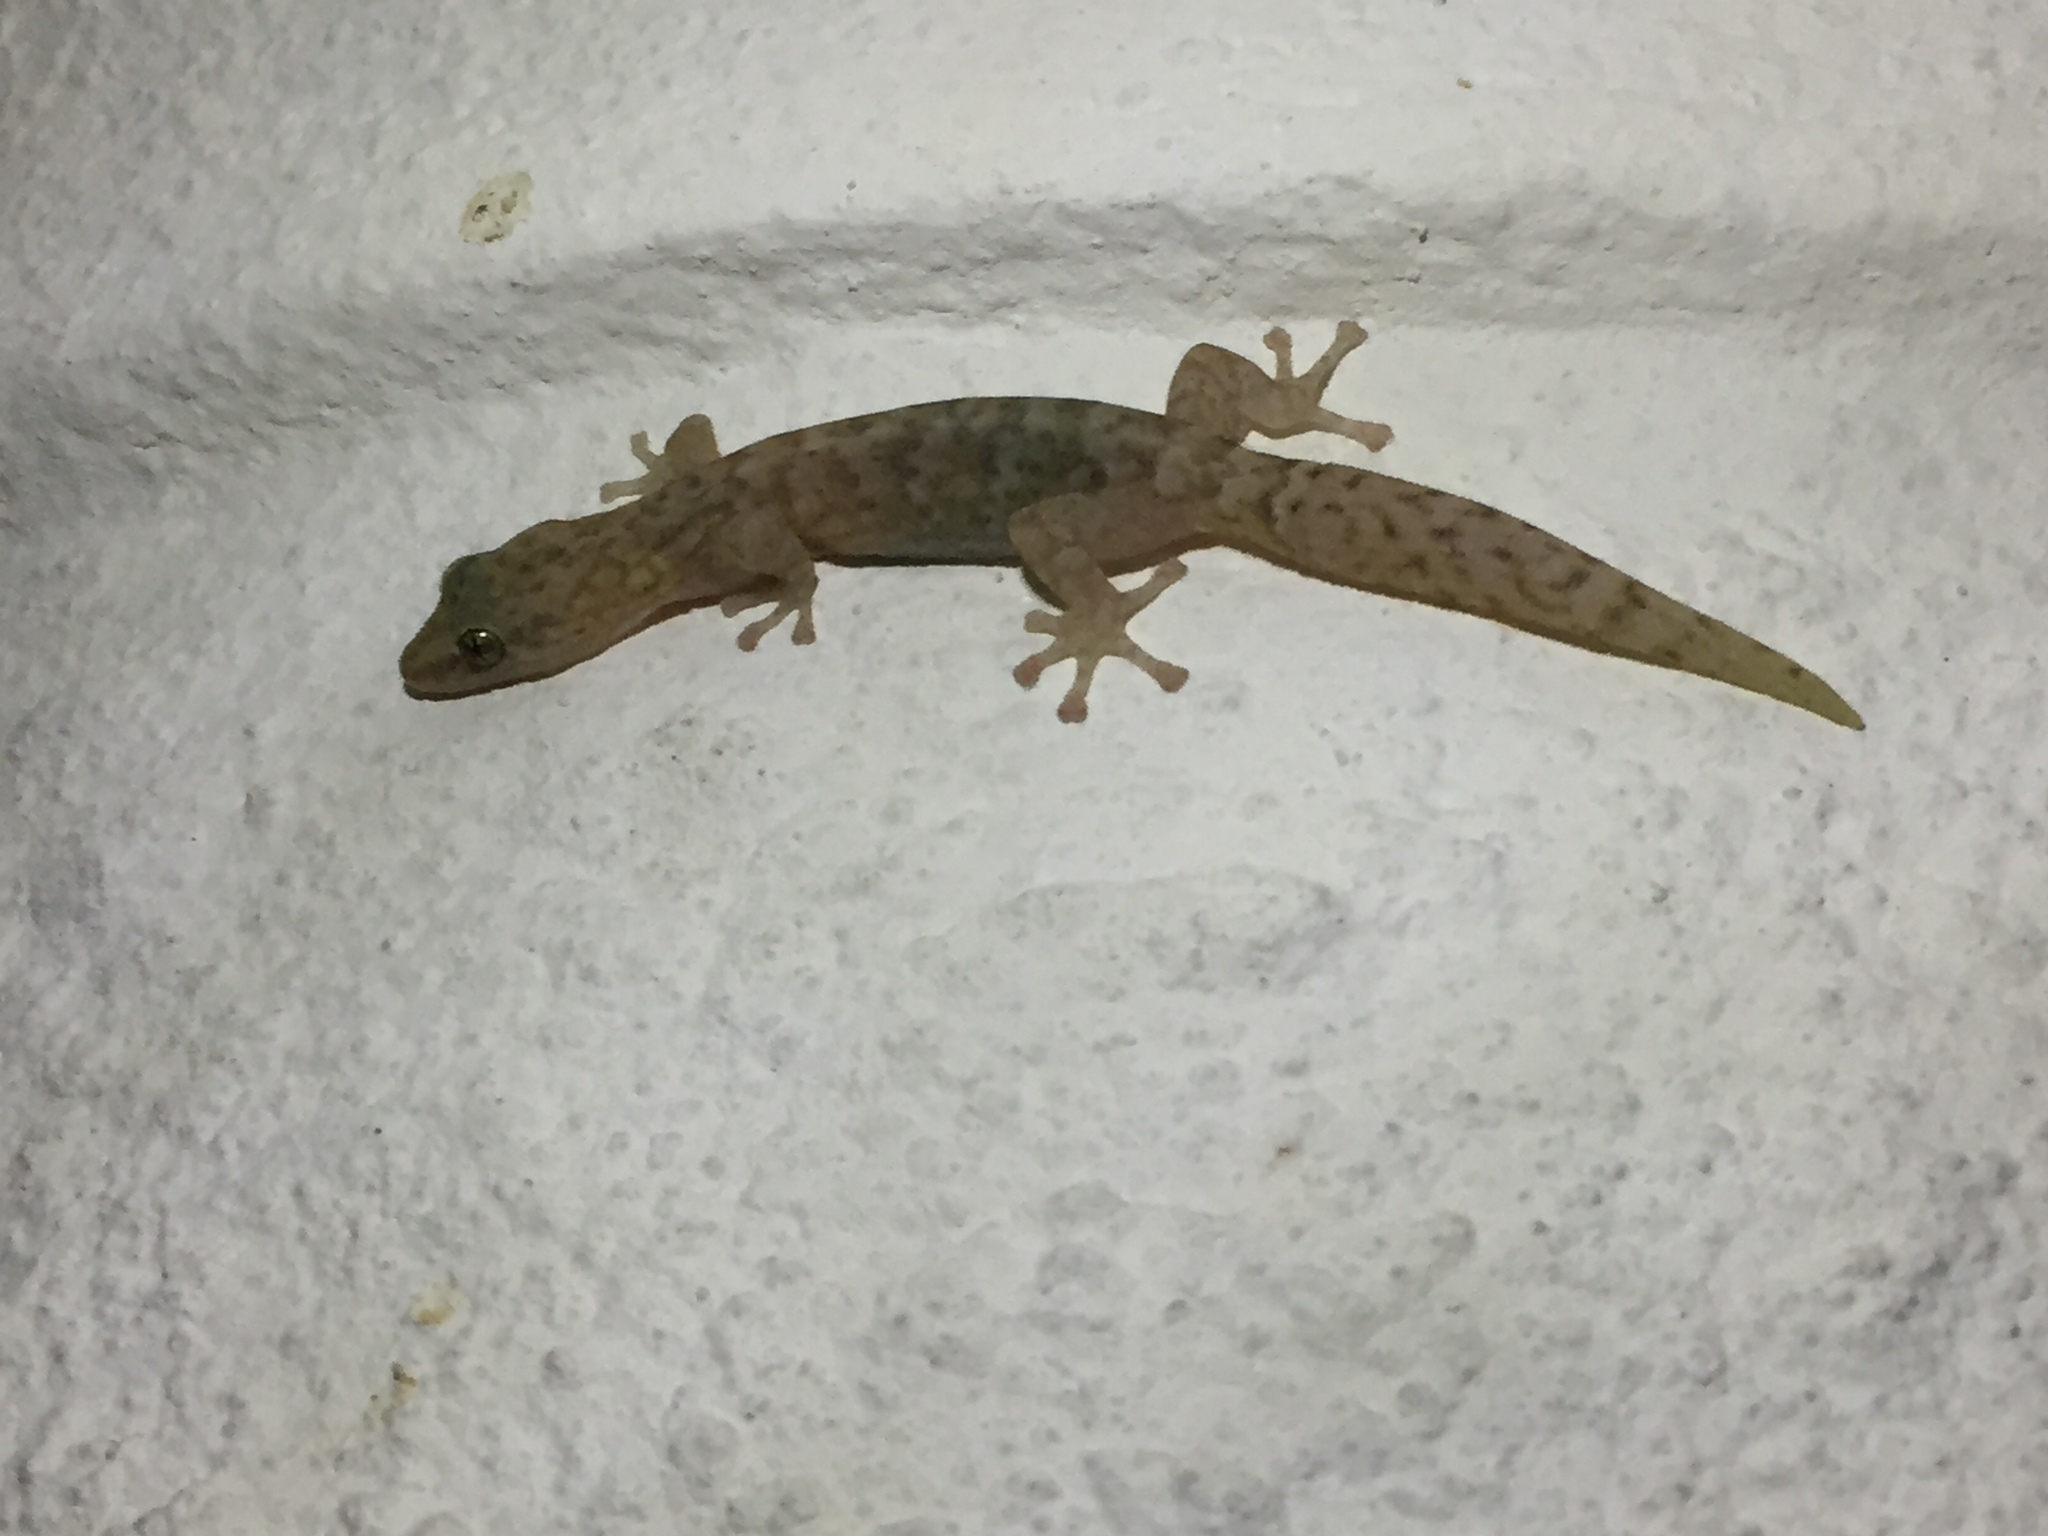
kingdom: Animalia
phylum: Chordata
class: Squamata
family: Gekkonidae
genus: Afrogecko
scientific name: Afrogecko porphyreus
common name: Marbled leaf-toed gecko
